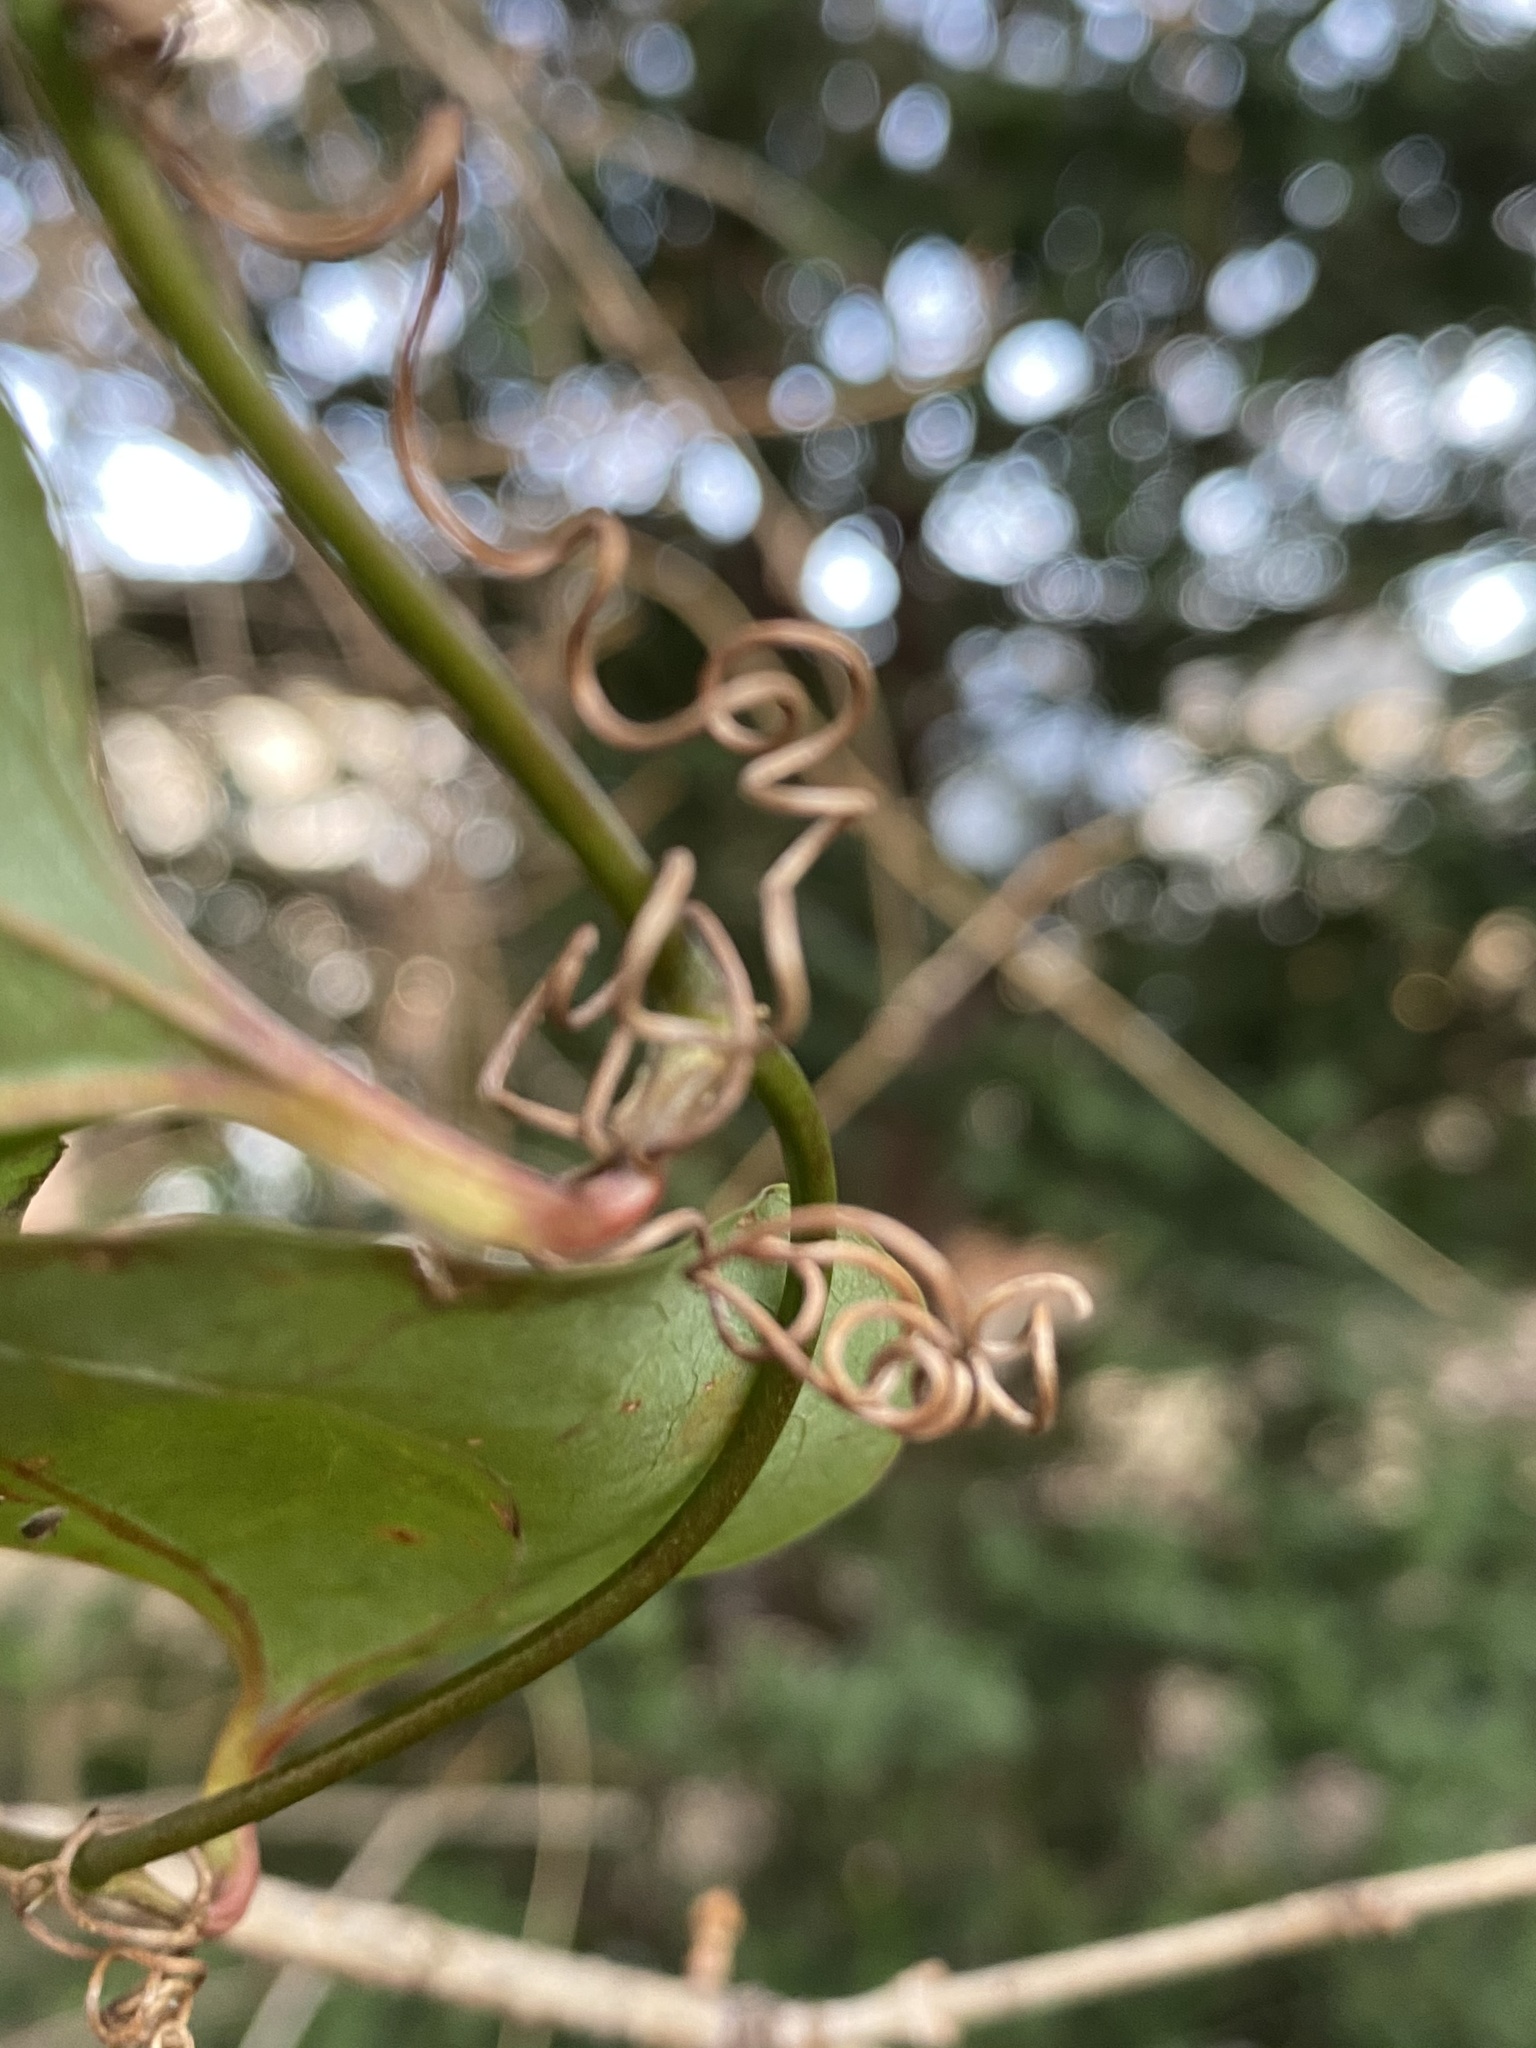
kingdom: Plantae
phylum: Tracheophyta
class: Liliopsida
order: Liliales
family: Smilacaceae
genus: Smilax
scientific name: Smilax glauca
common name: Cat greenbrier
